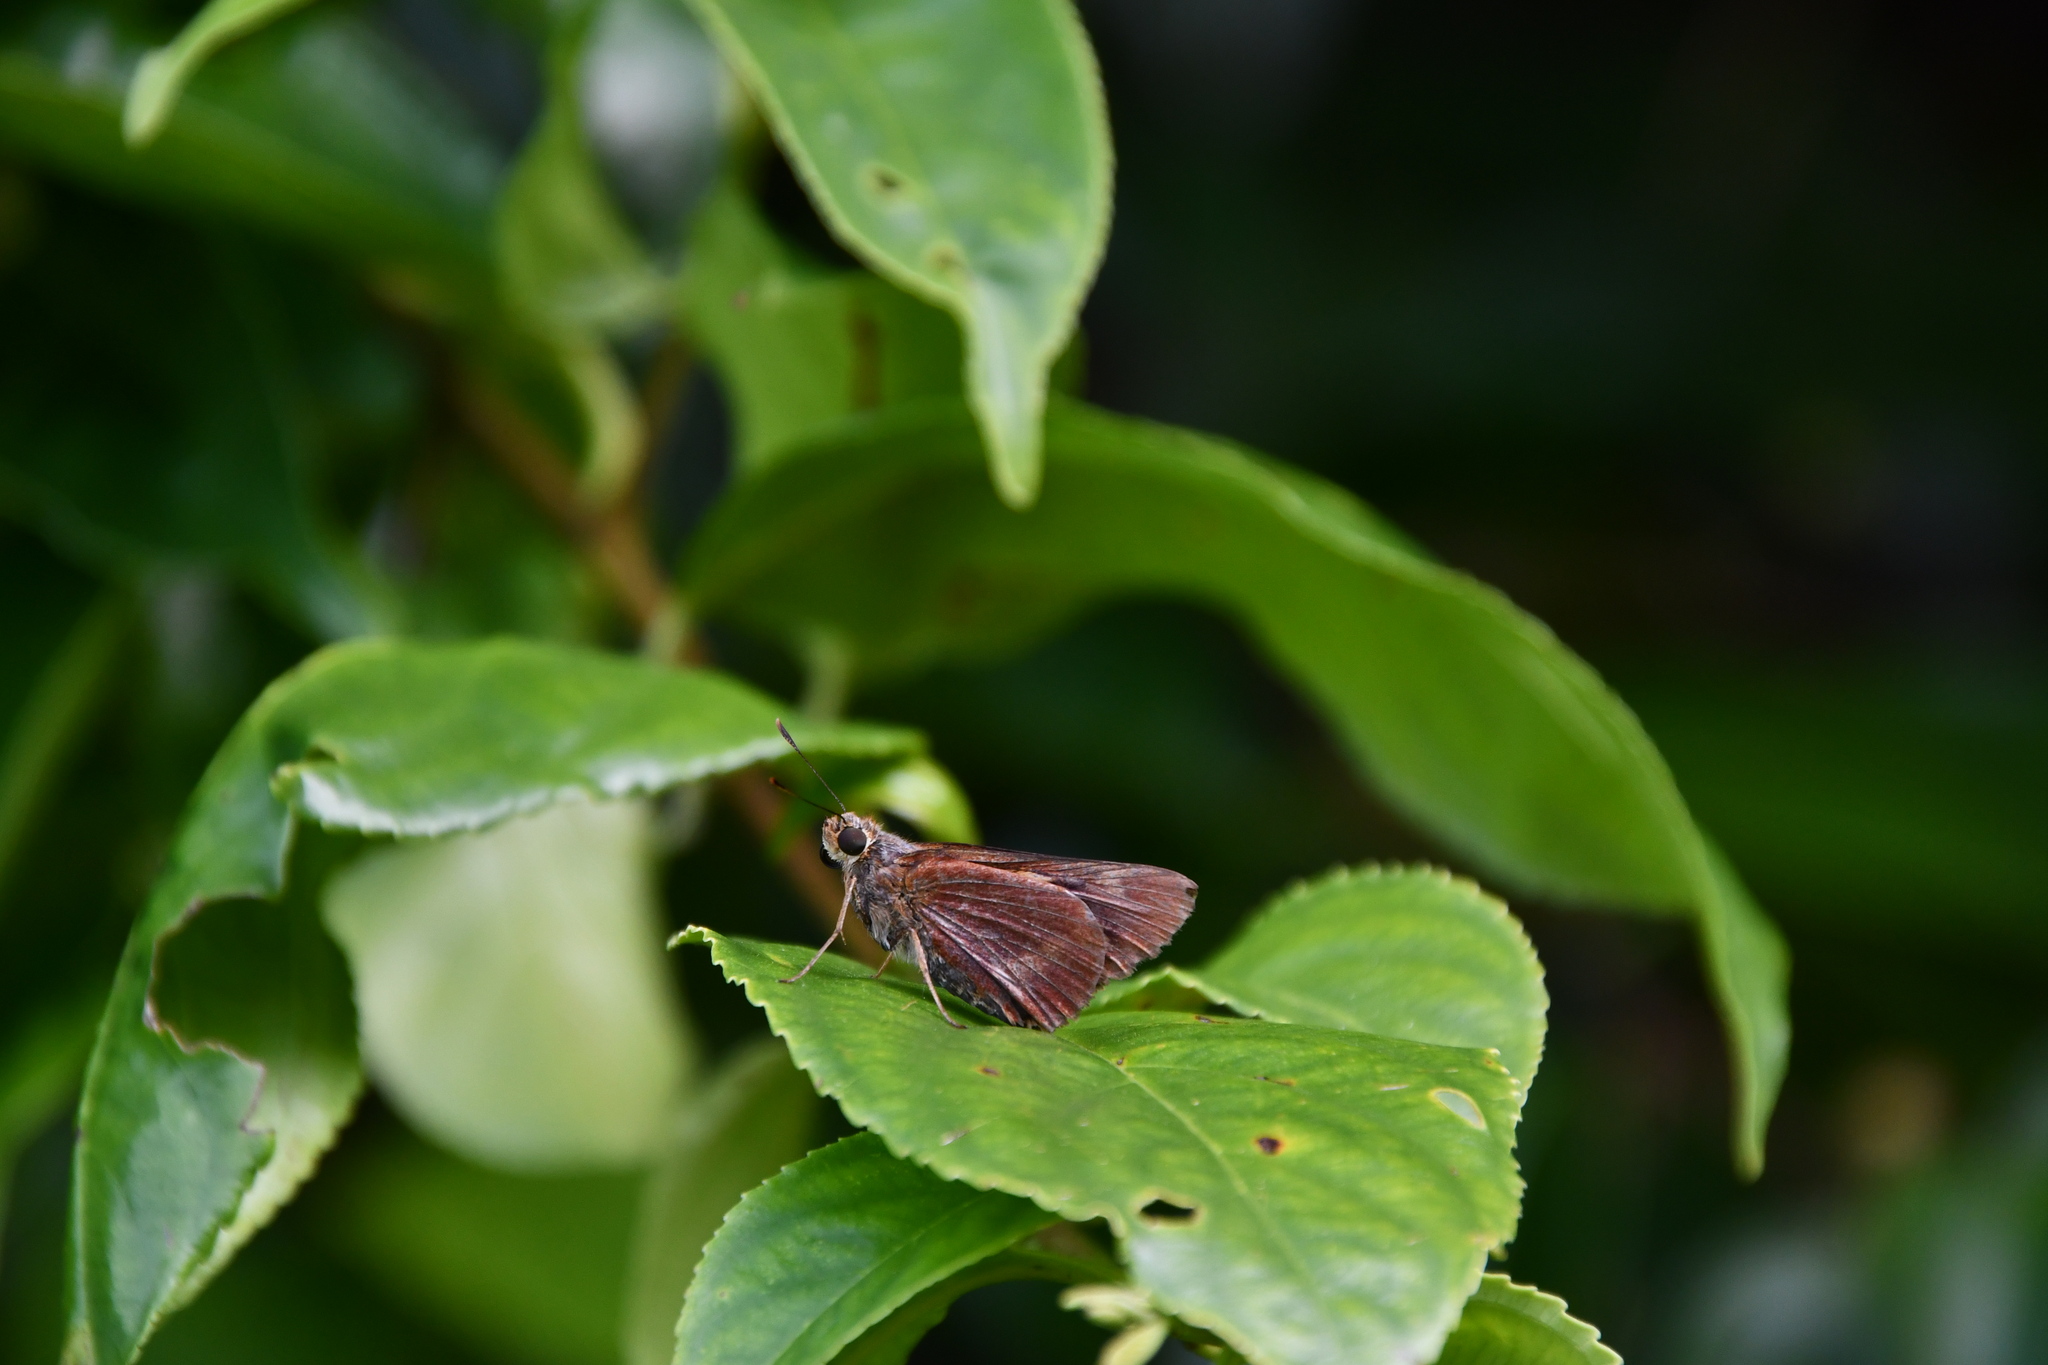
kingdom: Animalia
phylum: Arthropoda
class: Insecta
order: Lepidoptera
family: Hesperiidae
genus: Cephrenes
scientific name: Cephrenes augiades
